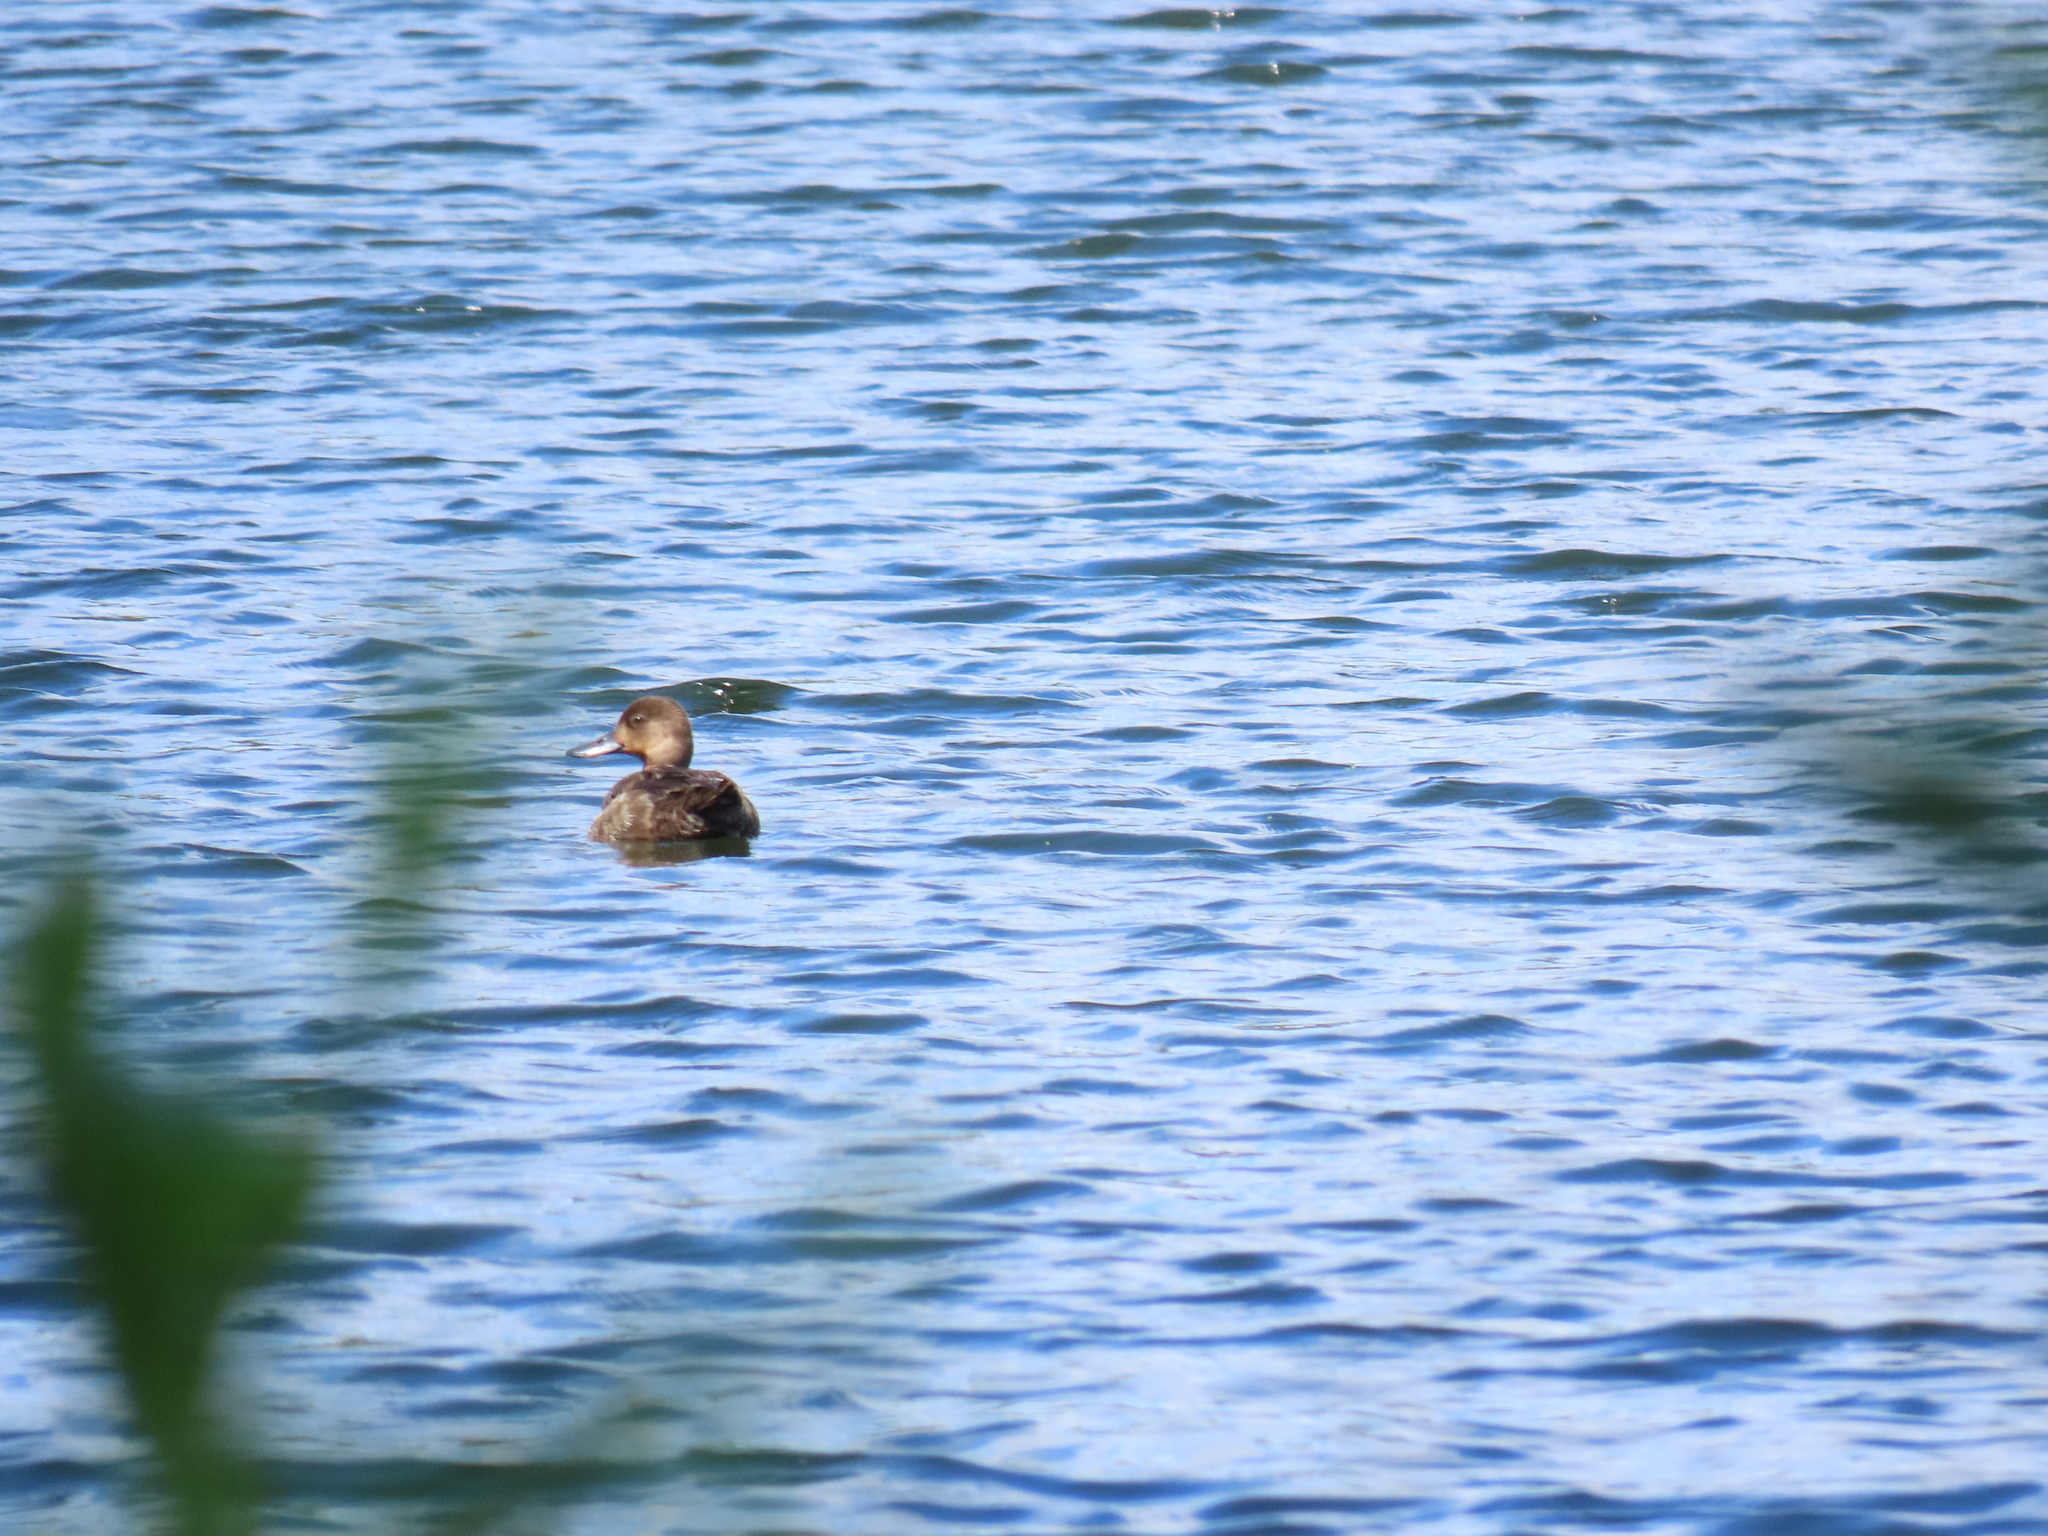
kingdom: Animalia
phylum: Chordata
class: Aves
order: Anseriformes
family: Anatidae
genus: Aythya
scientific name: Aythya americana
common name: Redhead
